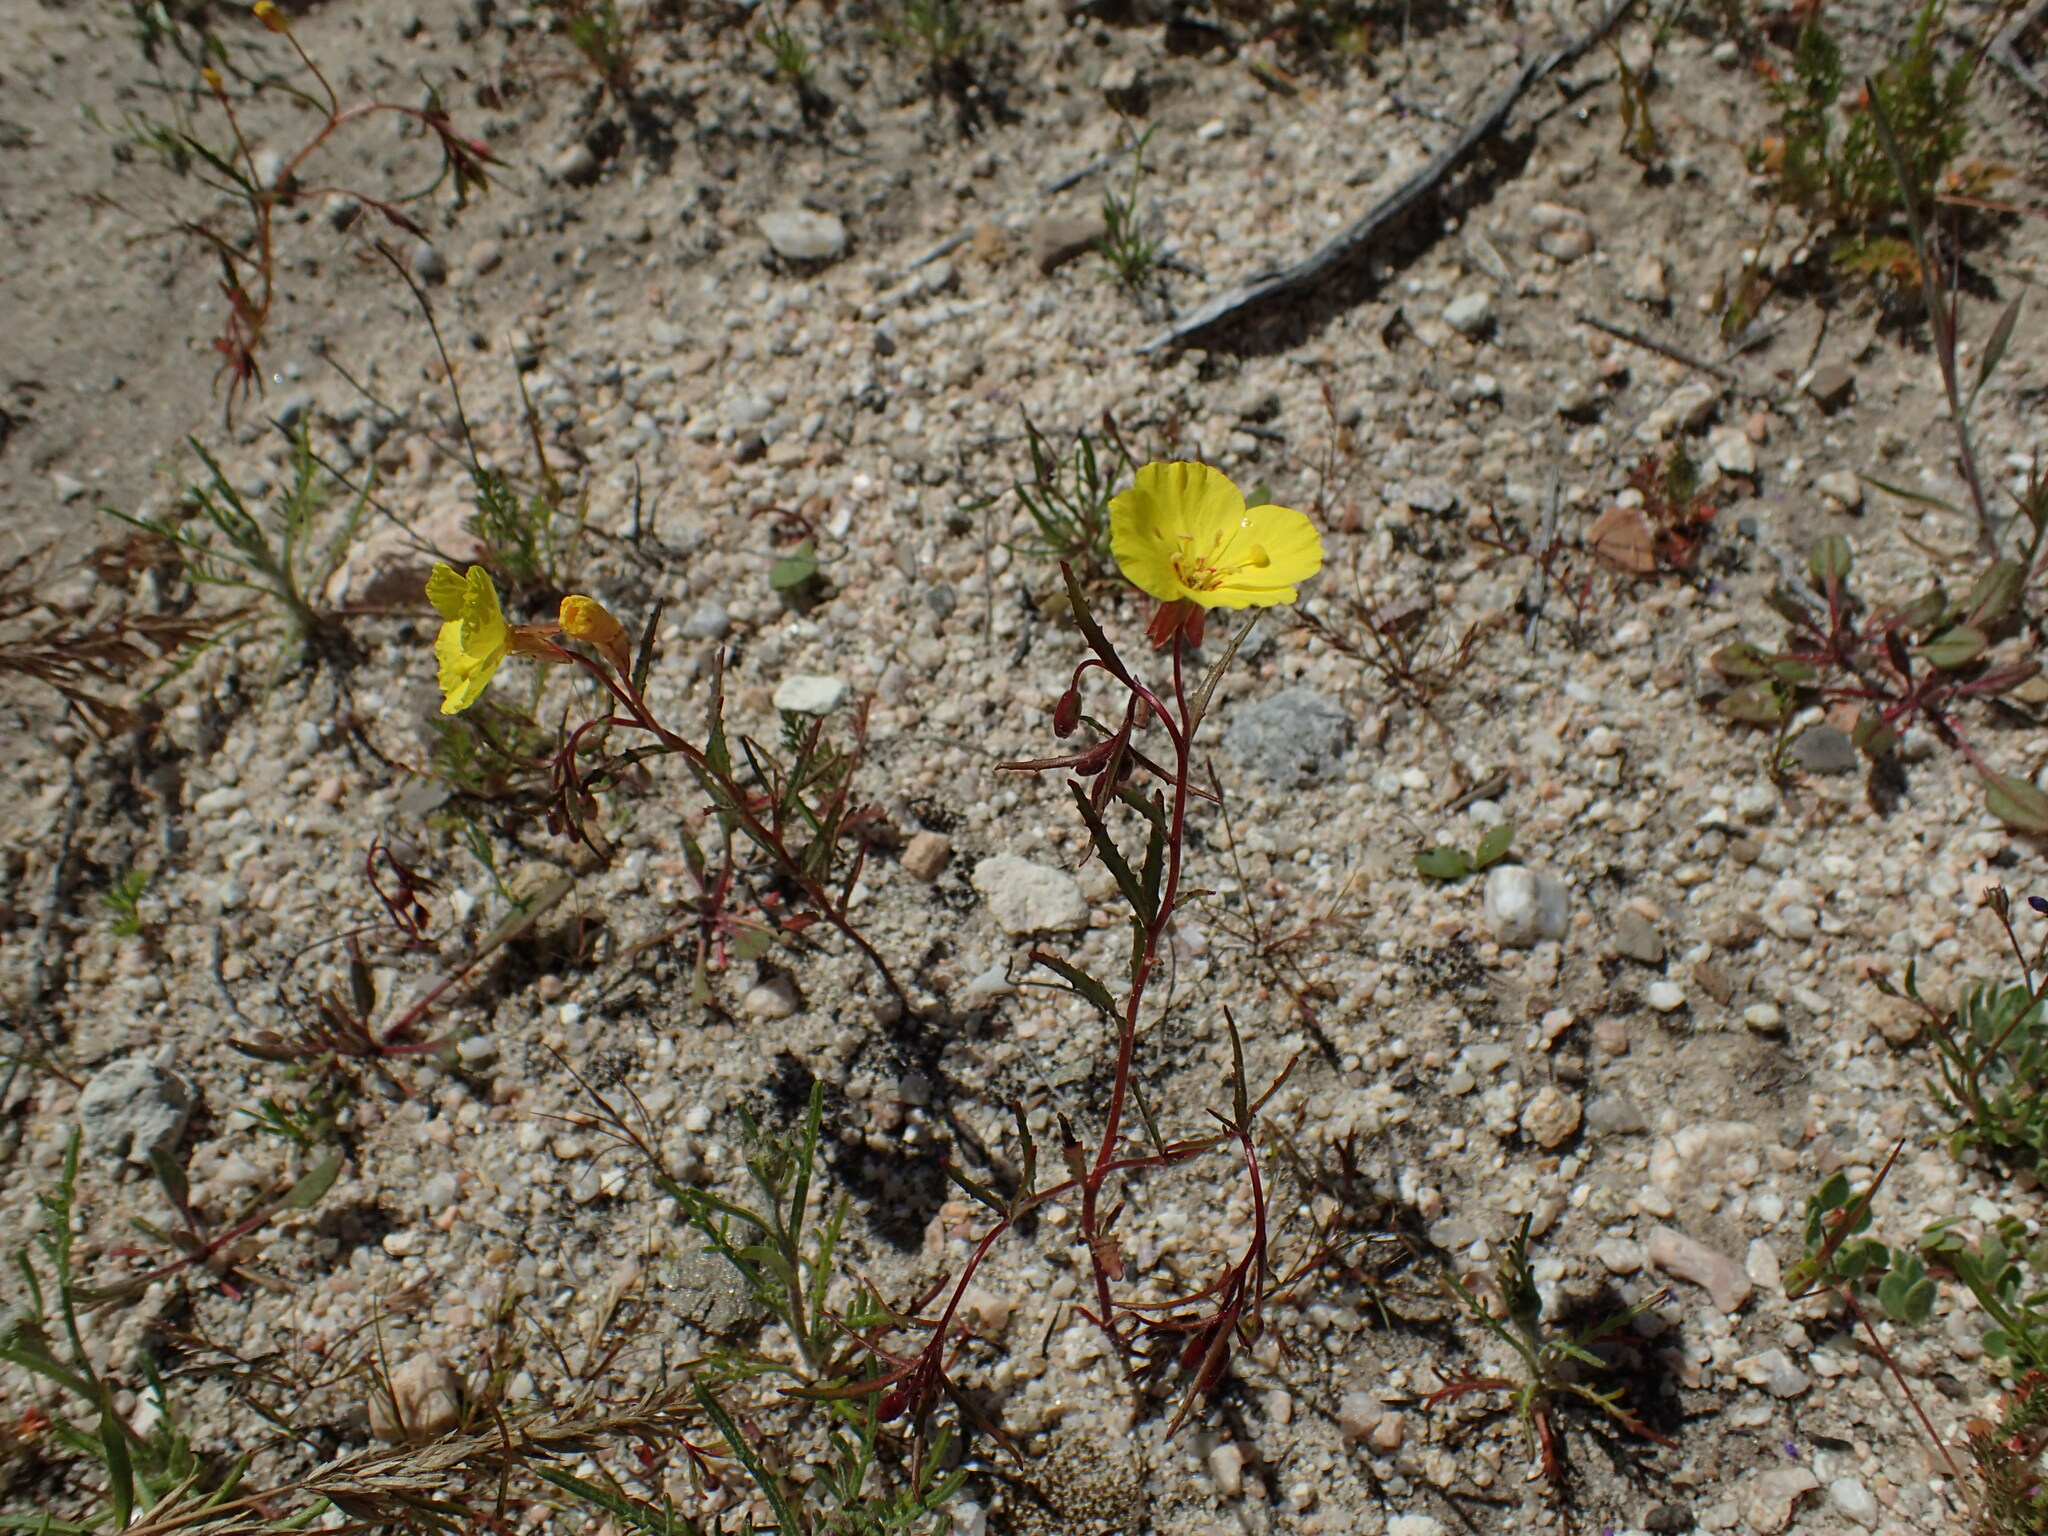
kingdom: Plantae
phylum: Tracheophyta
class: Magnoliopsida
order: Myrtales
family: Onagraceae
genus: Camissonia
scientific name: Camissonia campestris
